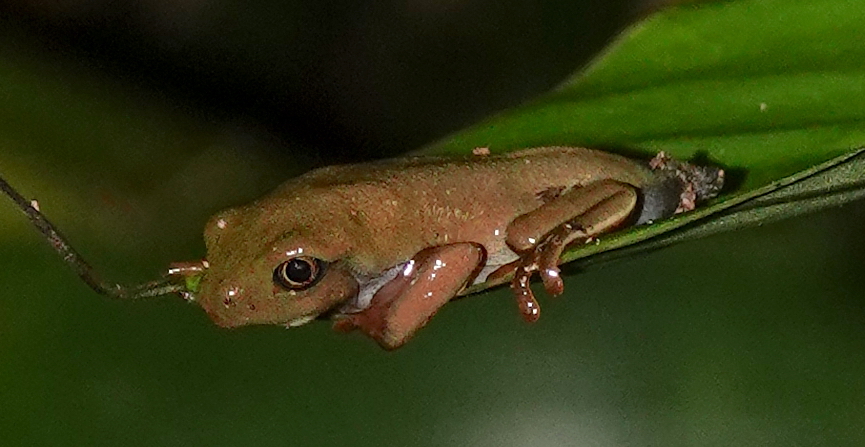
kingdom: Animalia
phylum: Chordata
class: Amphibia
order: Anura
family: Phyllomedusidae
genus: Agalychnis
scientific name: Agalychnis annae
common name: Blue-sided treefrog
